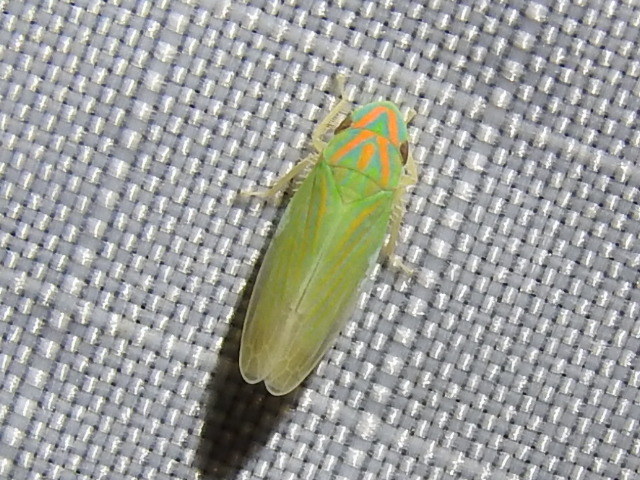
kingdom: Animalia
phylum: Arthropoda
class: Insecta
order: Hemiptera
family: Cicadellidae
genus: Spangbergiella
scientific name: Spangbergiella vulnerata
